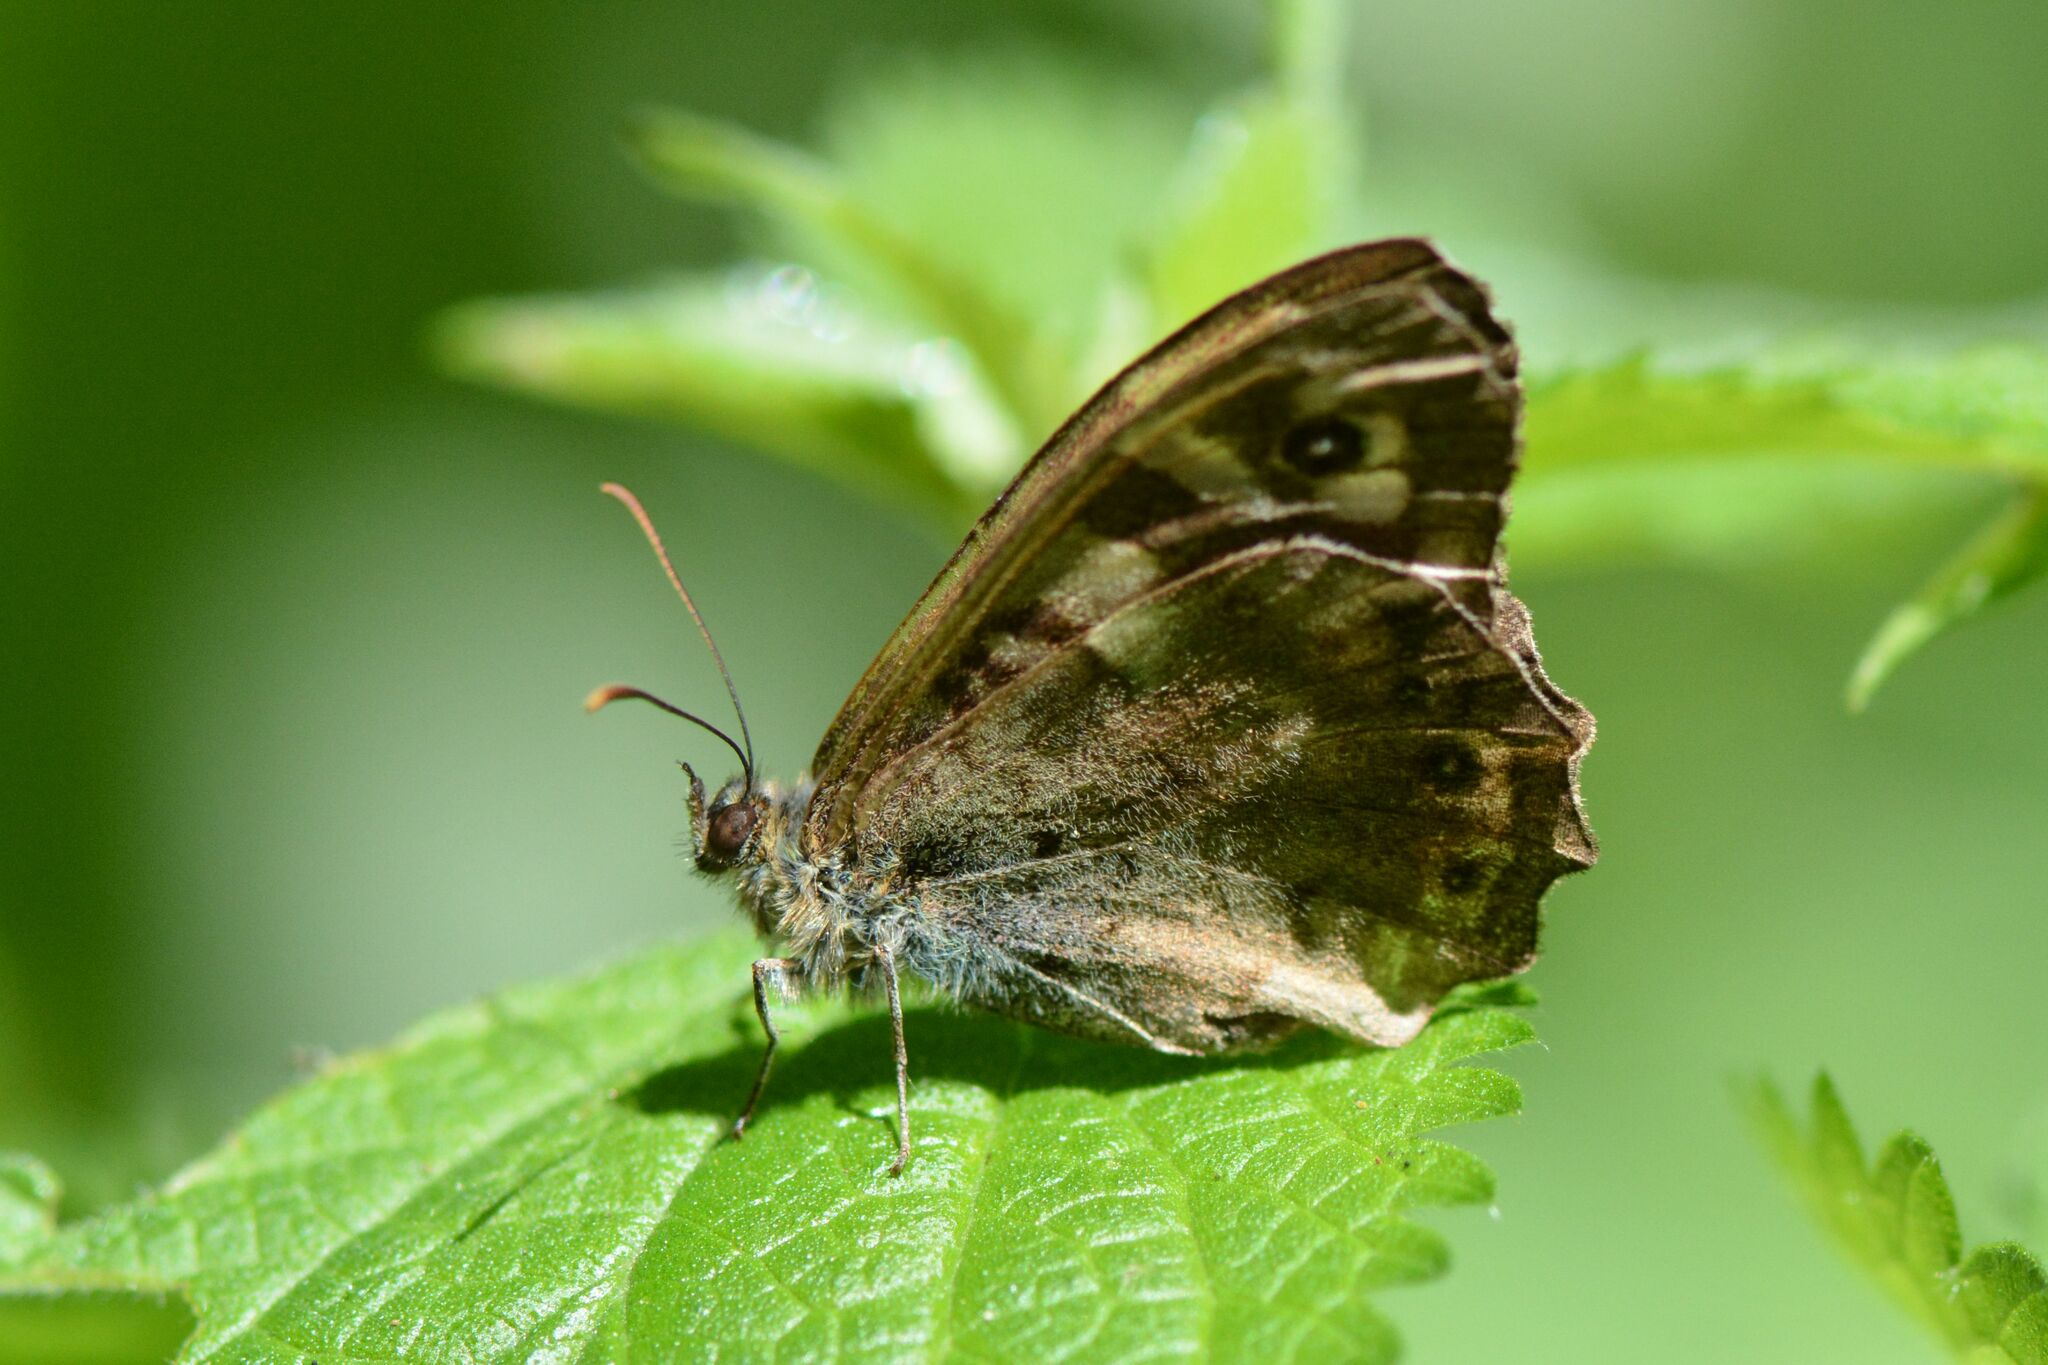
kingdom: Animalia
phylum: Arthropoda
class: Insecta
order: Lepidoptera
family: Nymphalidae
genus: Pararge
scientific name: Pararge aegeria
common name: Speckled wood
